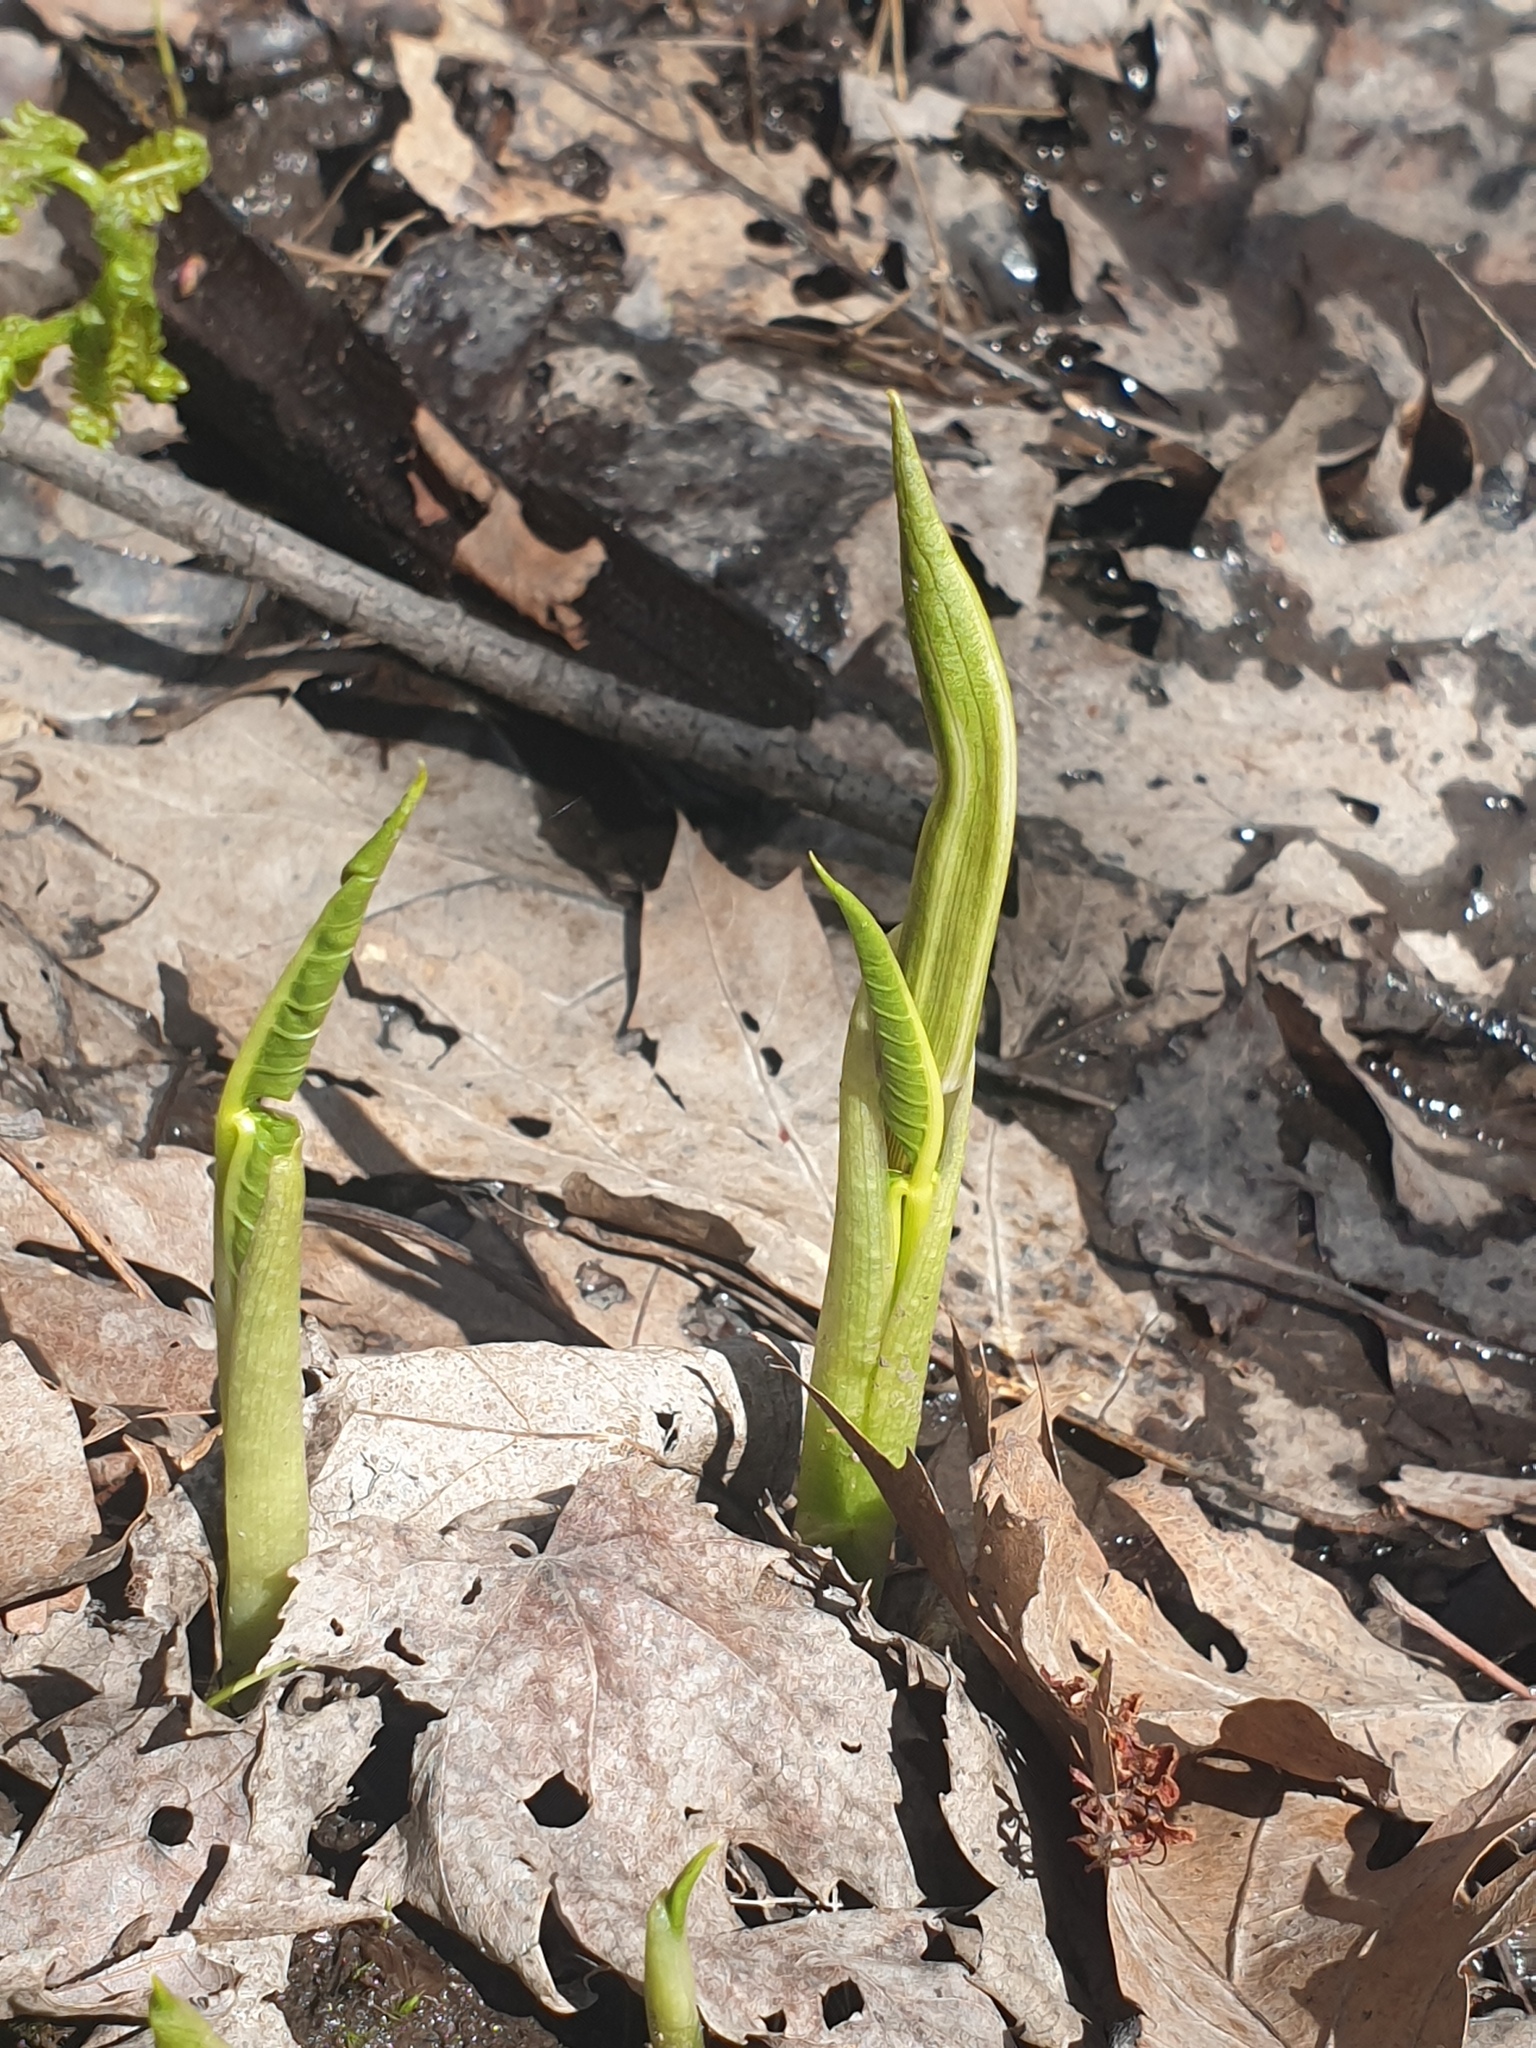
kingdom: Plantae
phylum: Tracheophyta
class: Liliopsida
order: Alismatales
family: Araceae
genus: Arisaema
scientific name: Arisaema triphyllum
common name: Jack-in-the-pulpit
